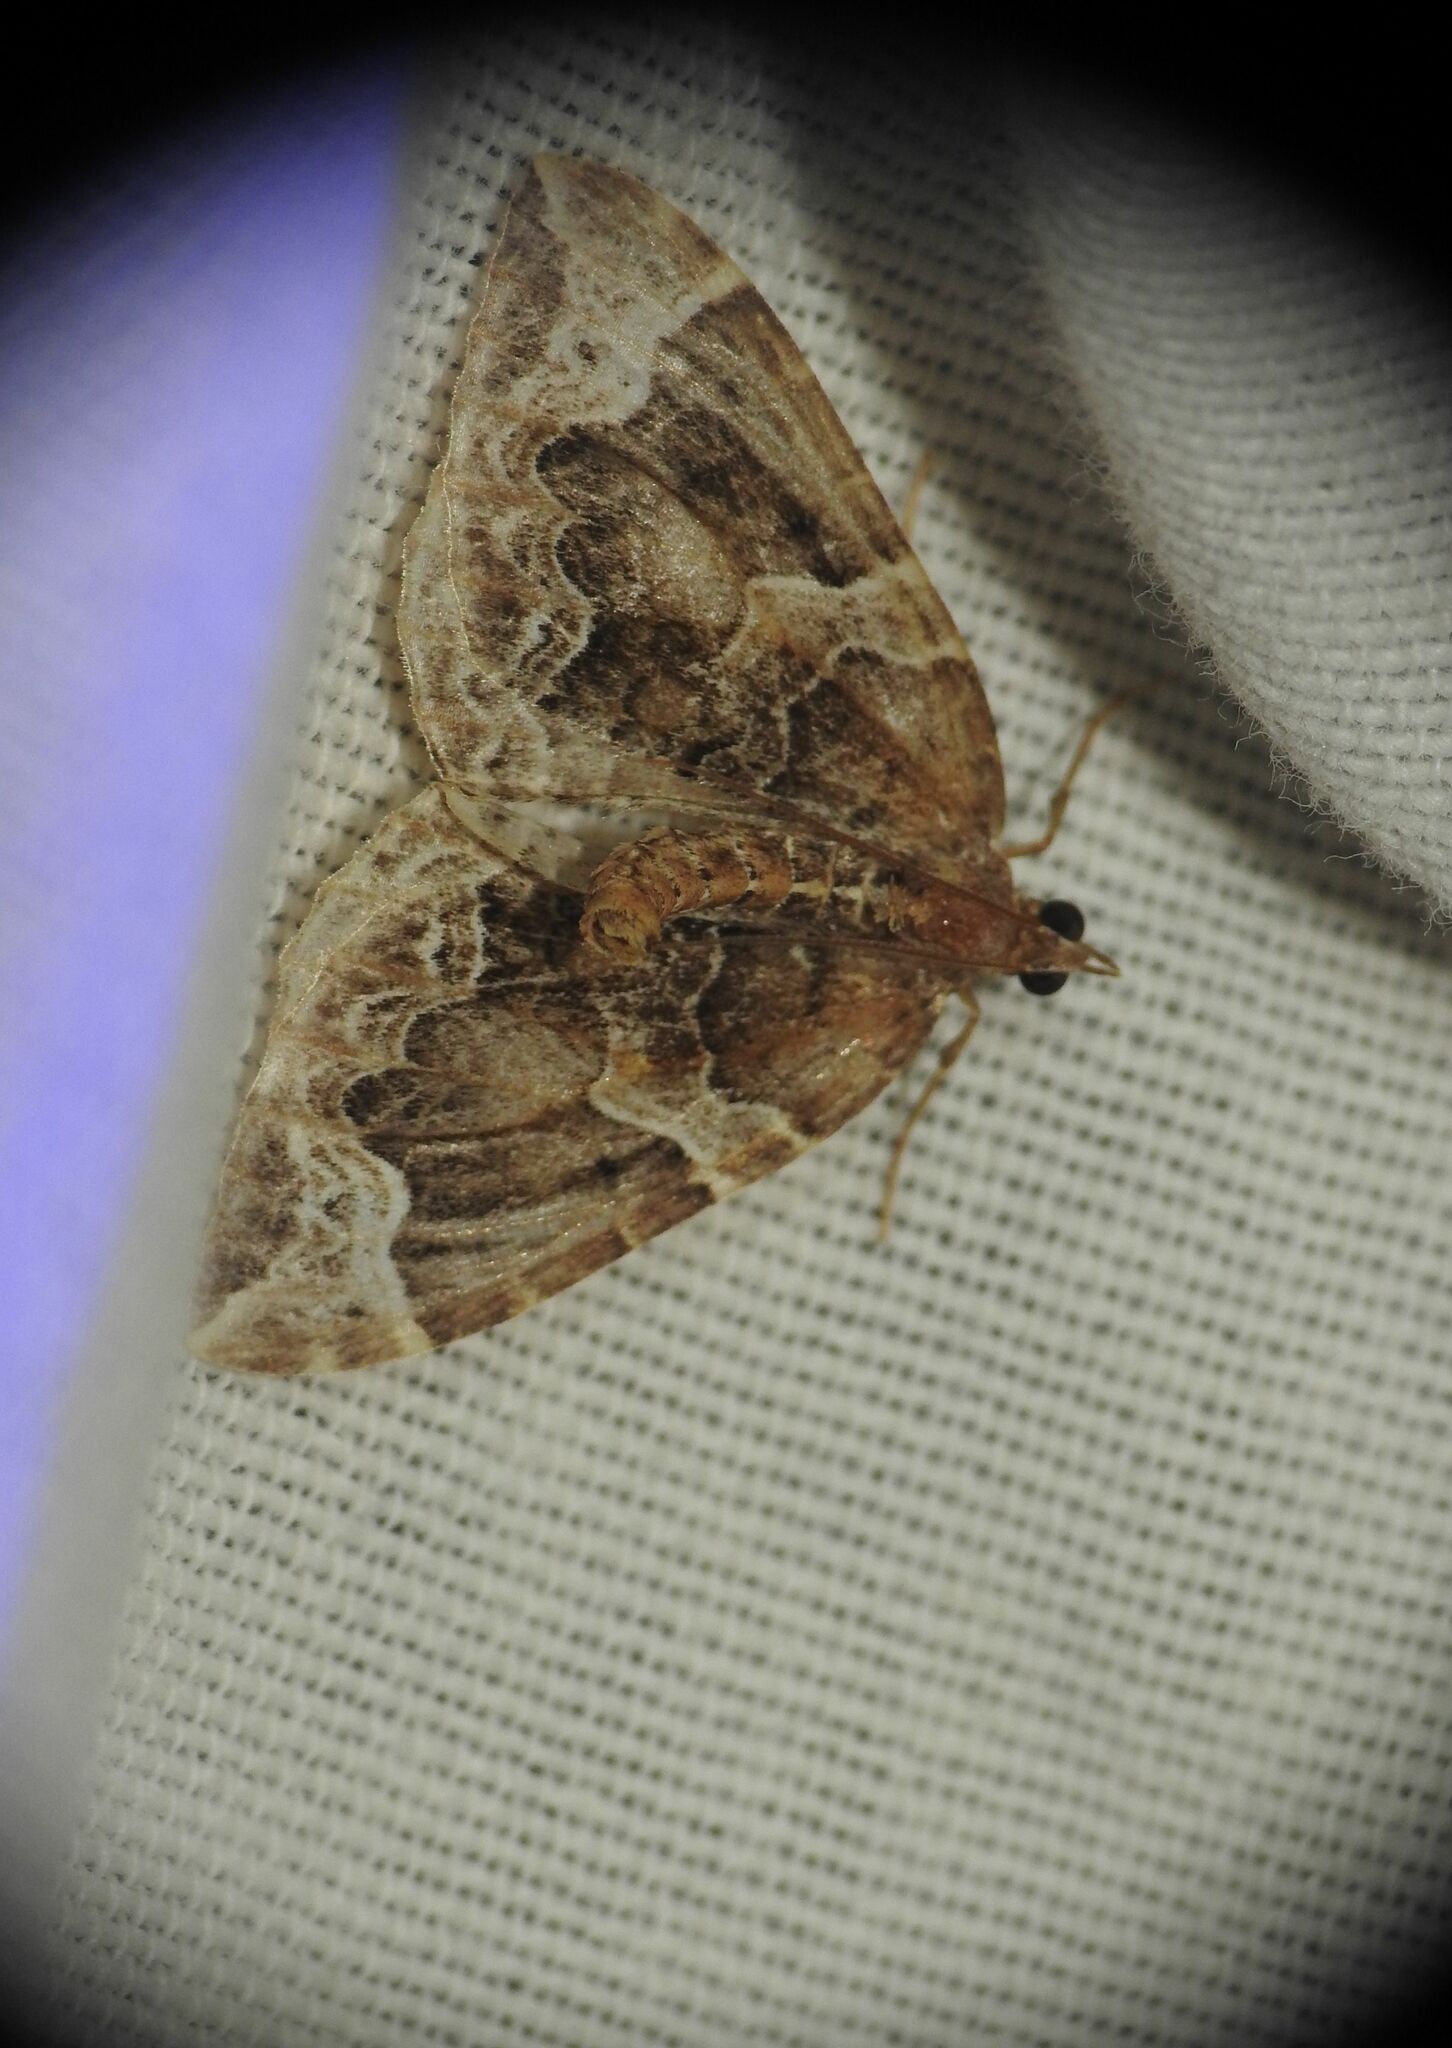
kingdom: Animalia
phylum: Arthropoda
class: Insecta
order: Lepidoptera
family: Geometridae
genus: Eulithis
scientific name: Eulithis prunata
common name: Phoenix
